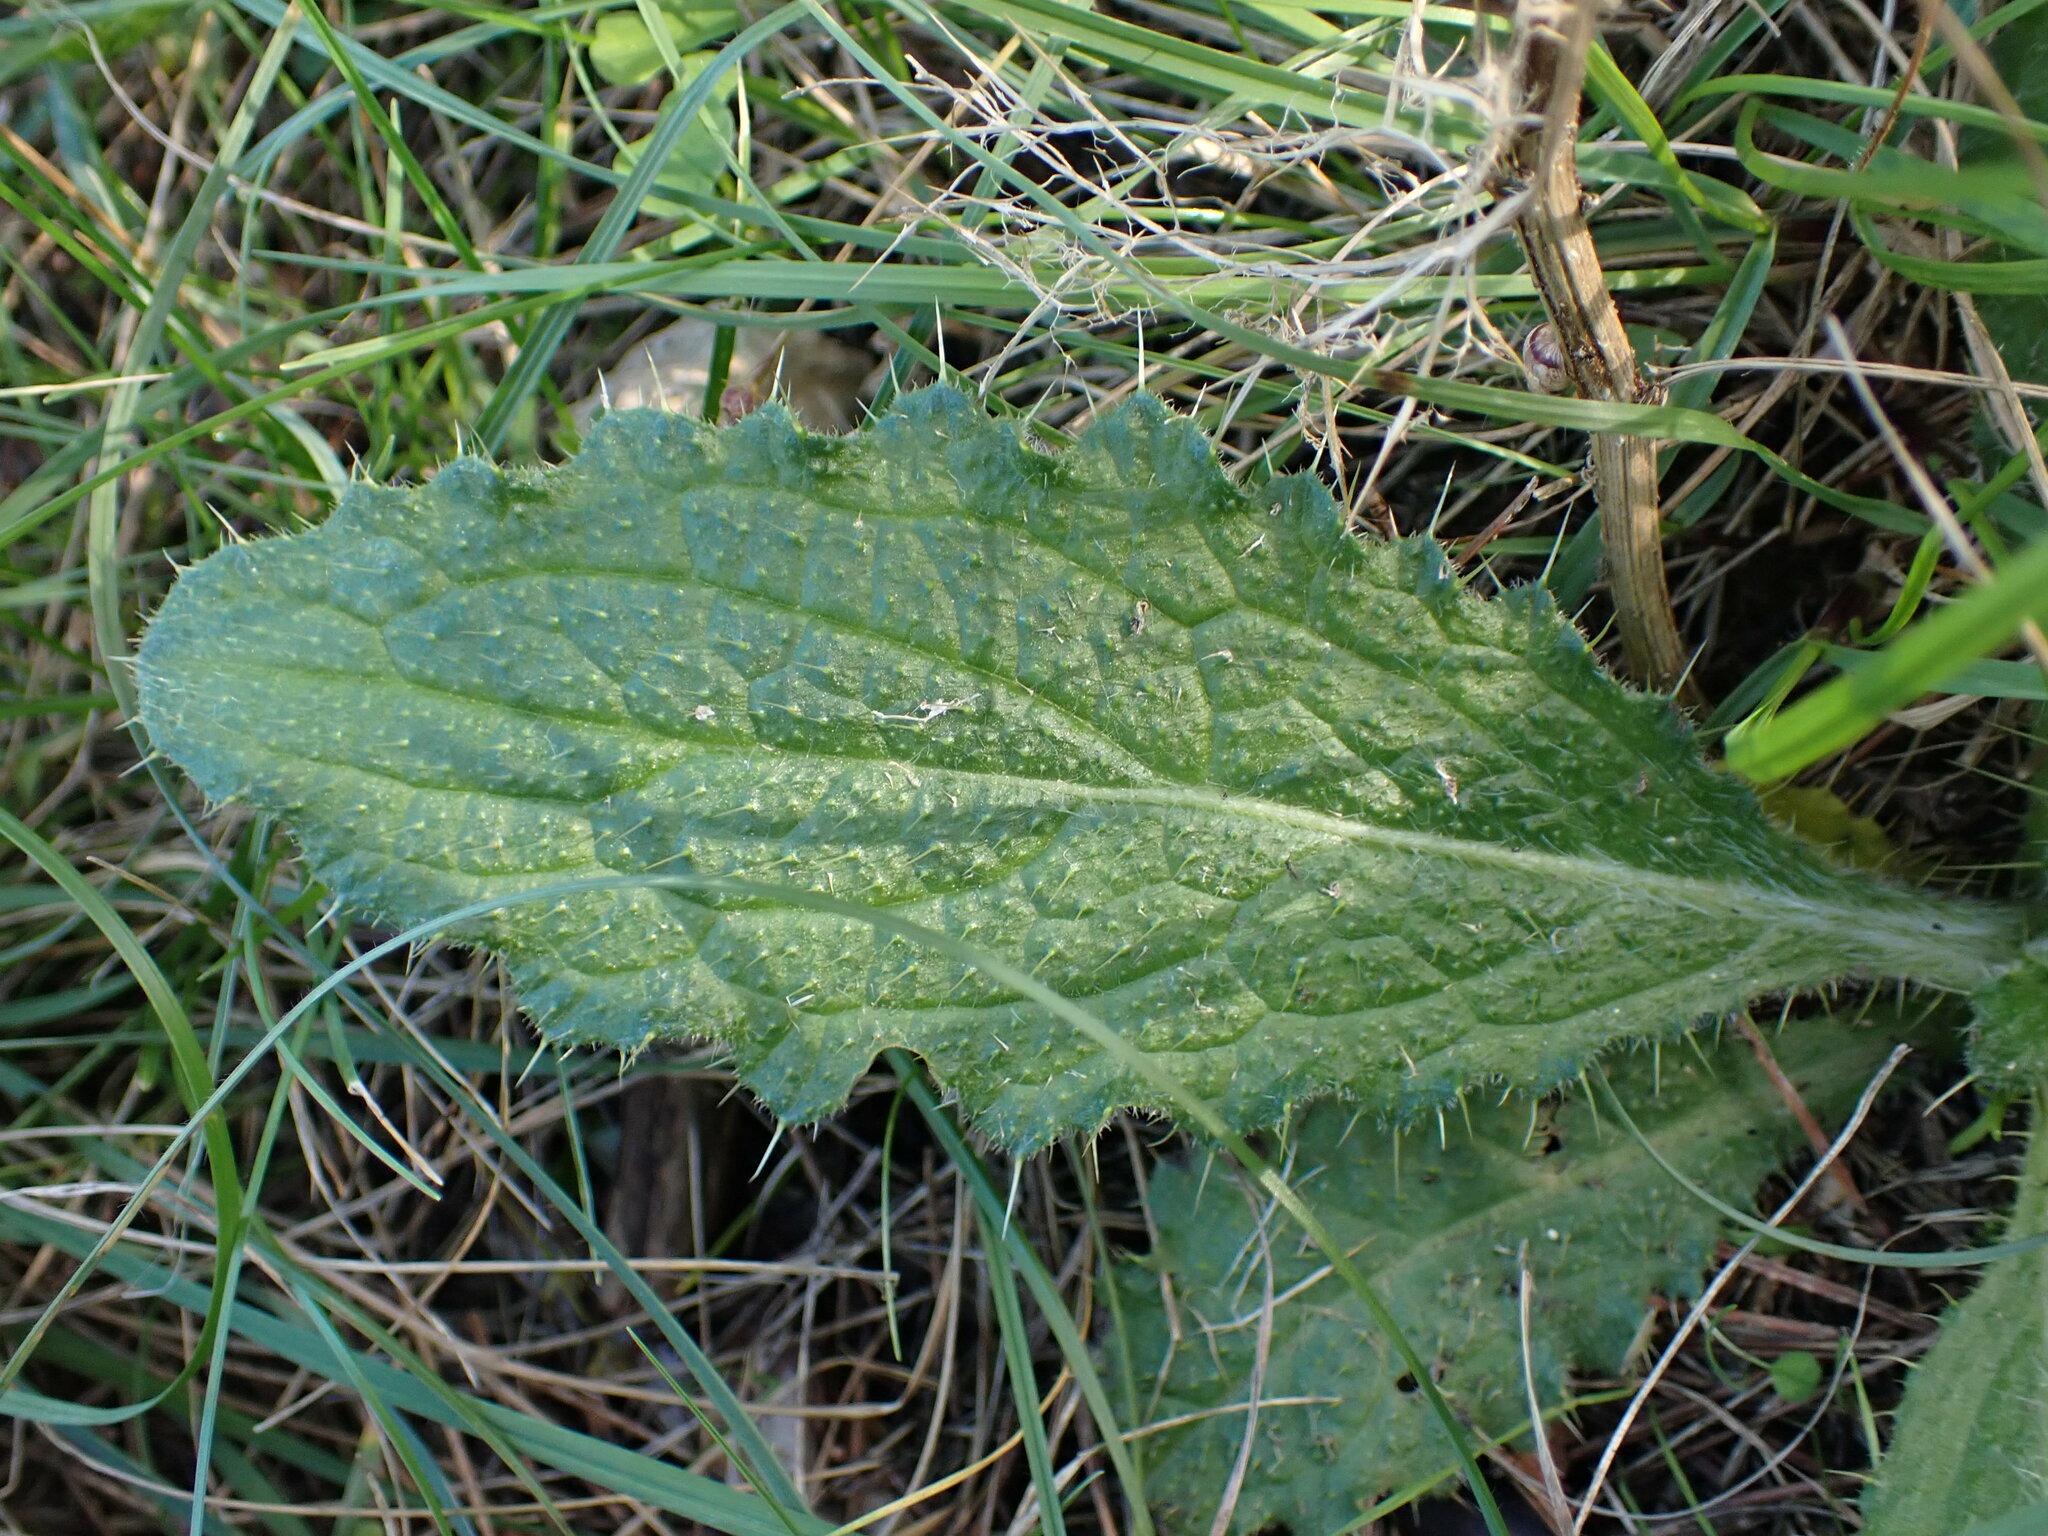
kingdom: Plantae
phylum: Tracheophyta
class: Magnoliopsida
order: Asterales
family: Asteraceae
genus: Cirsium
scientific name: Cirsium vulgare
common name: Bull thistle
